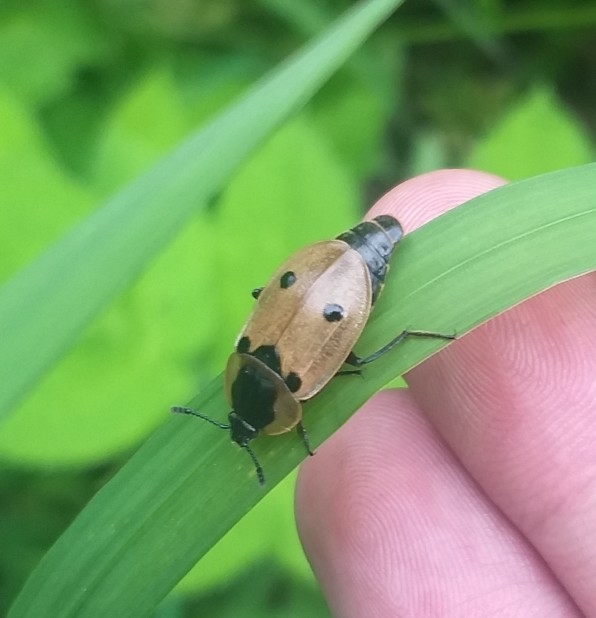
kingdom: Animalia
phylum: Arthropoda
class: Insecta
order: Coleoptera
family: Staphylinidae
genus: Dendroxena
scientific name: Dendroxena quadrimaculata
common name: Carrion beetle
